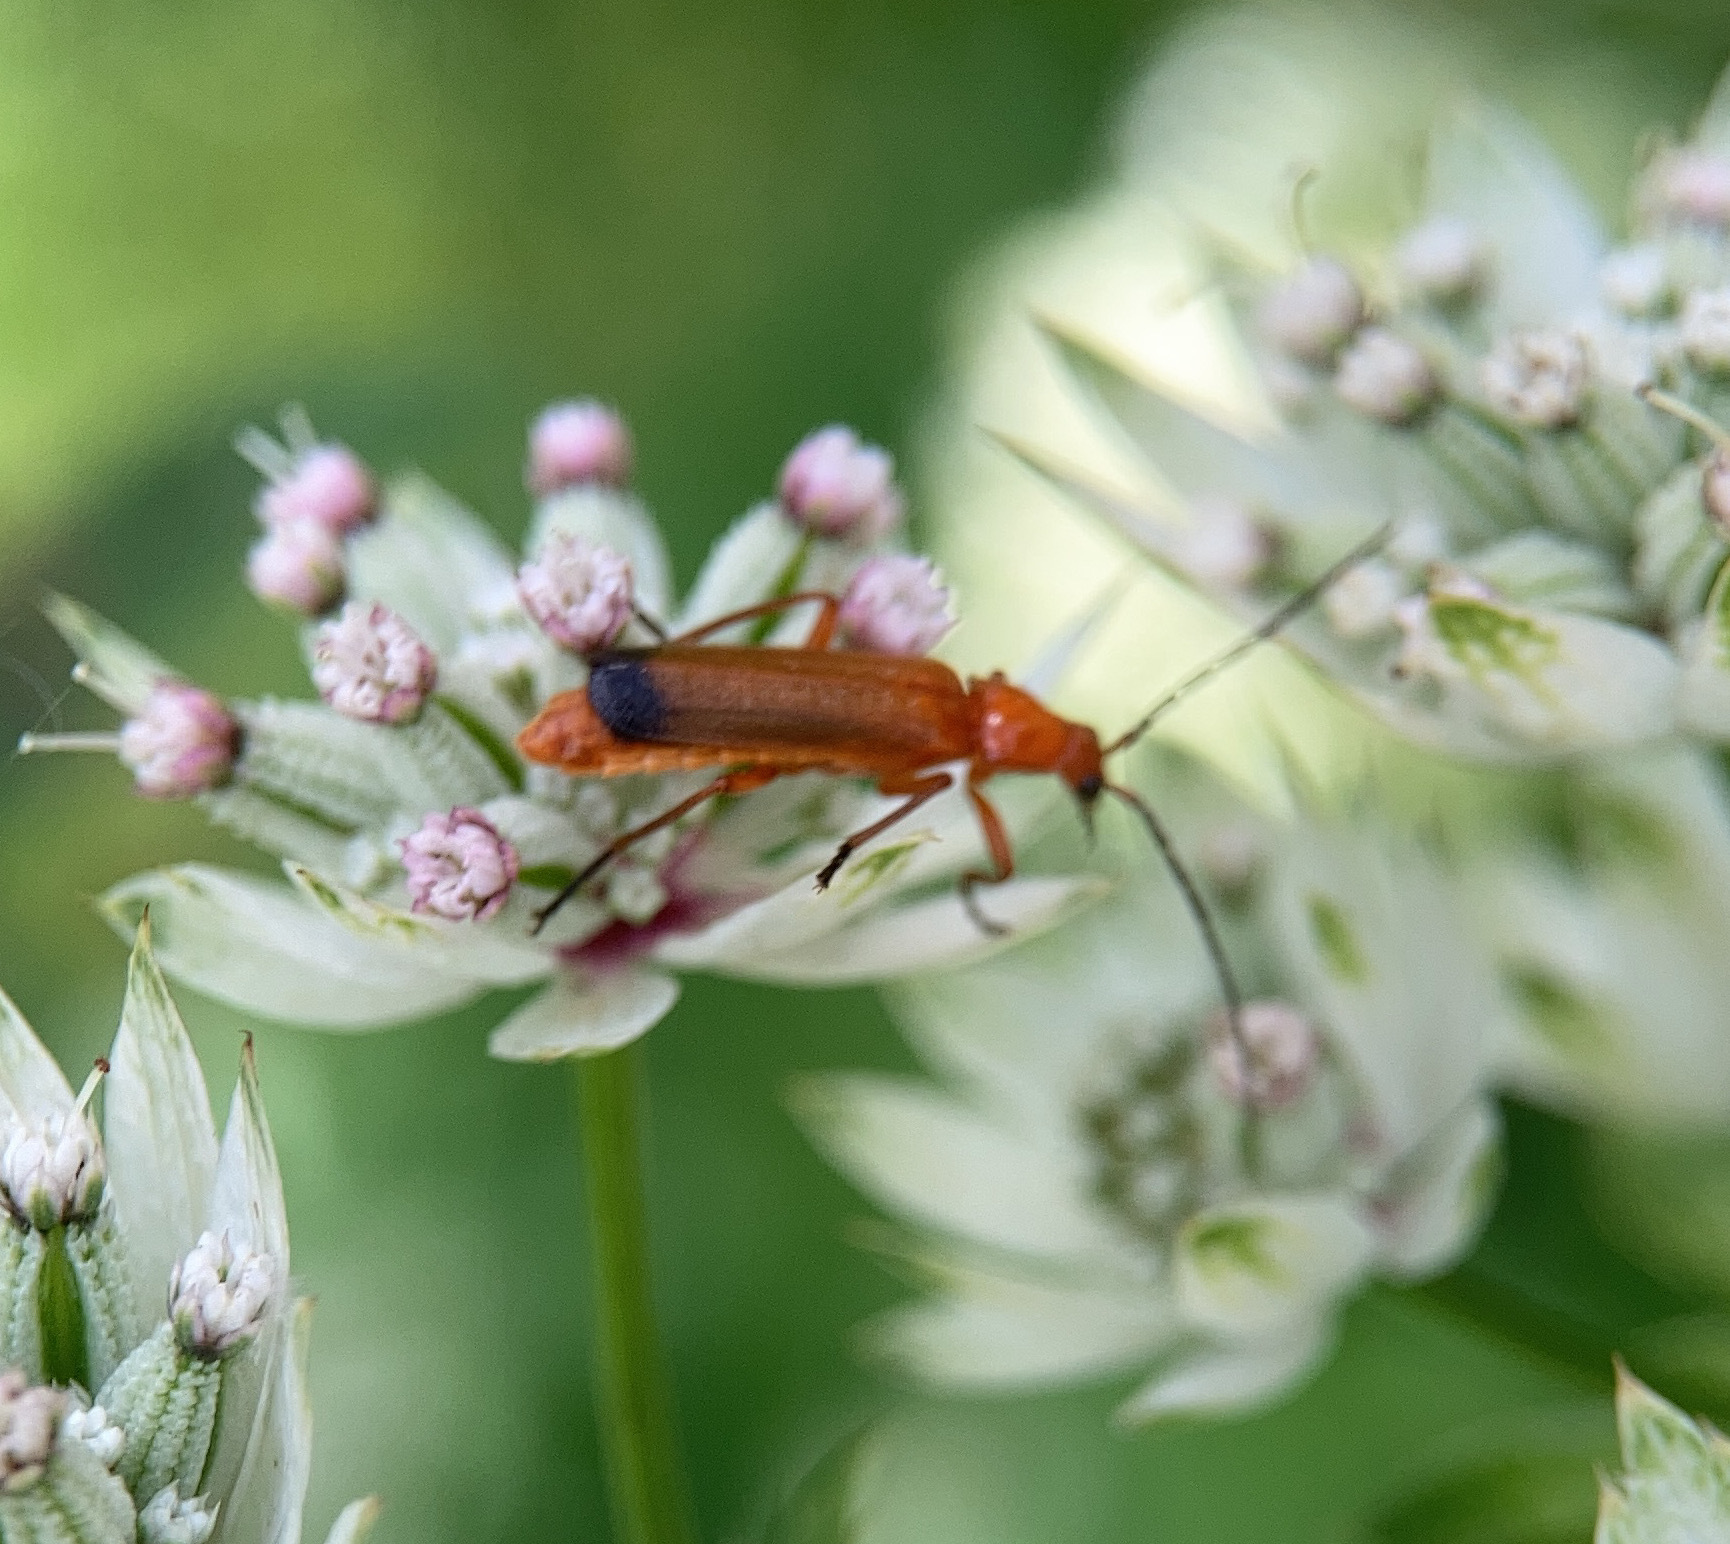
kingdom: Animalia
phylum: Arthropoda
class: Insecta
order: Coleoptera
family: Cantharidae
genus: Rhagonycha
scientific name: Rhagonycha fulva
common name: Common red soldier beetle
